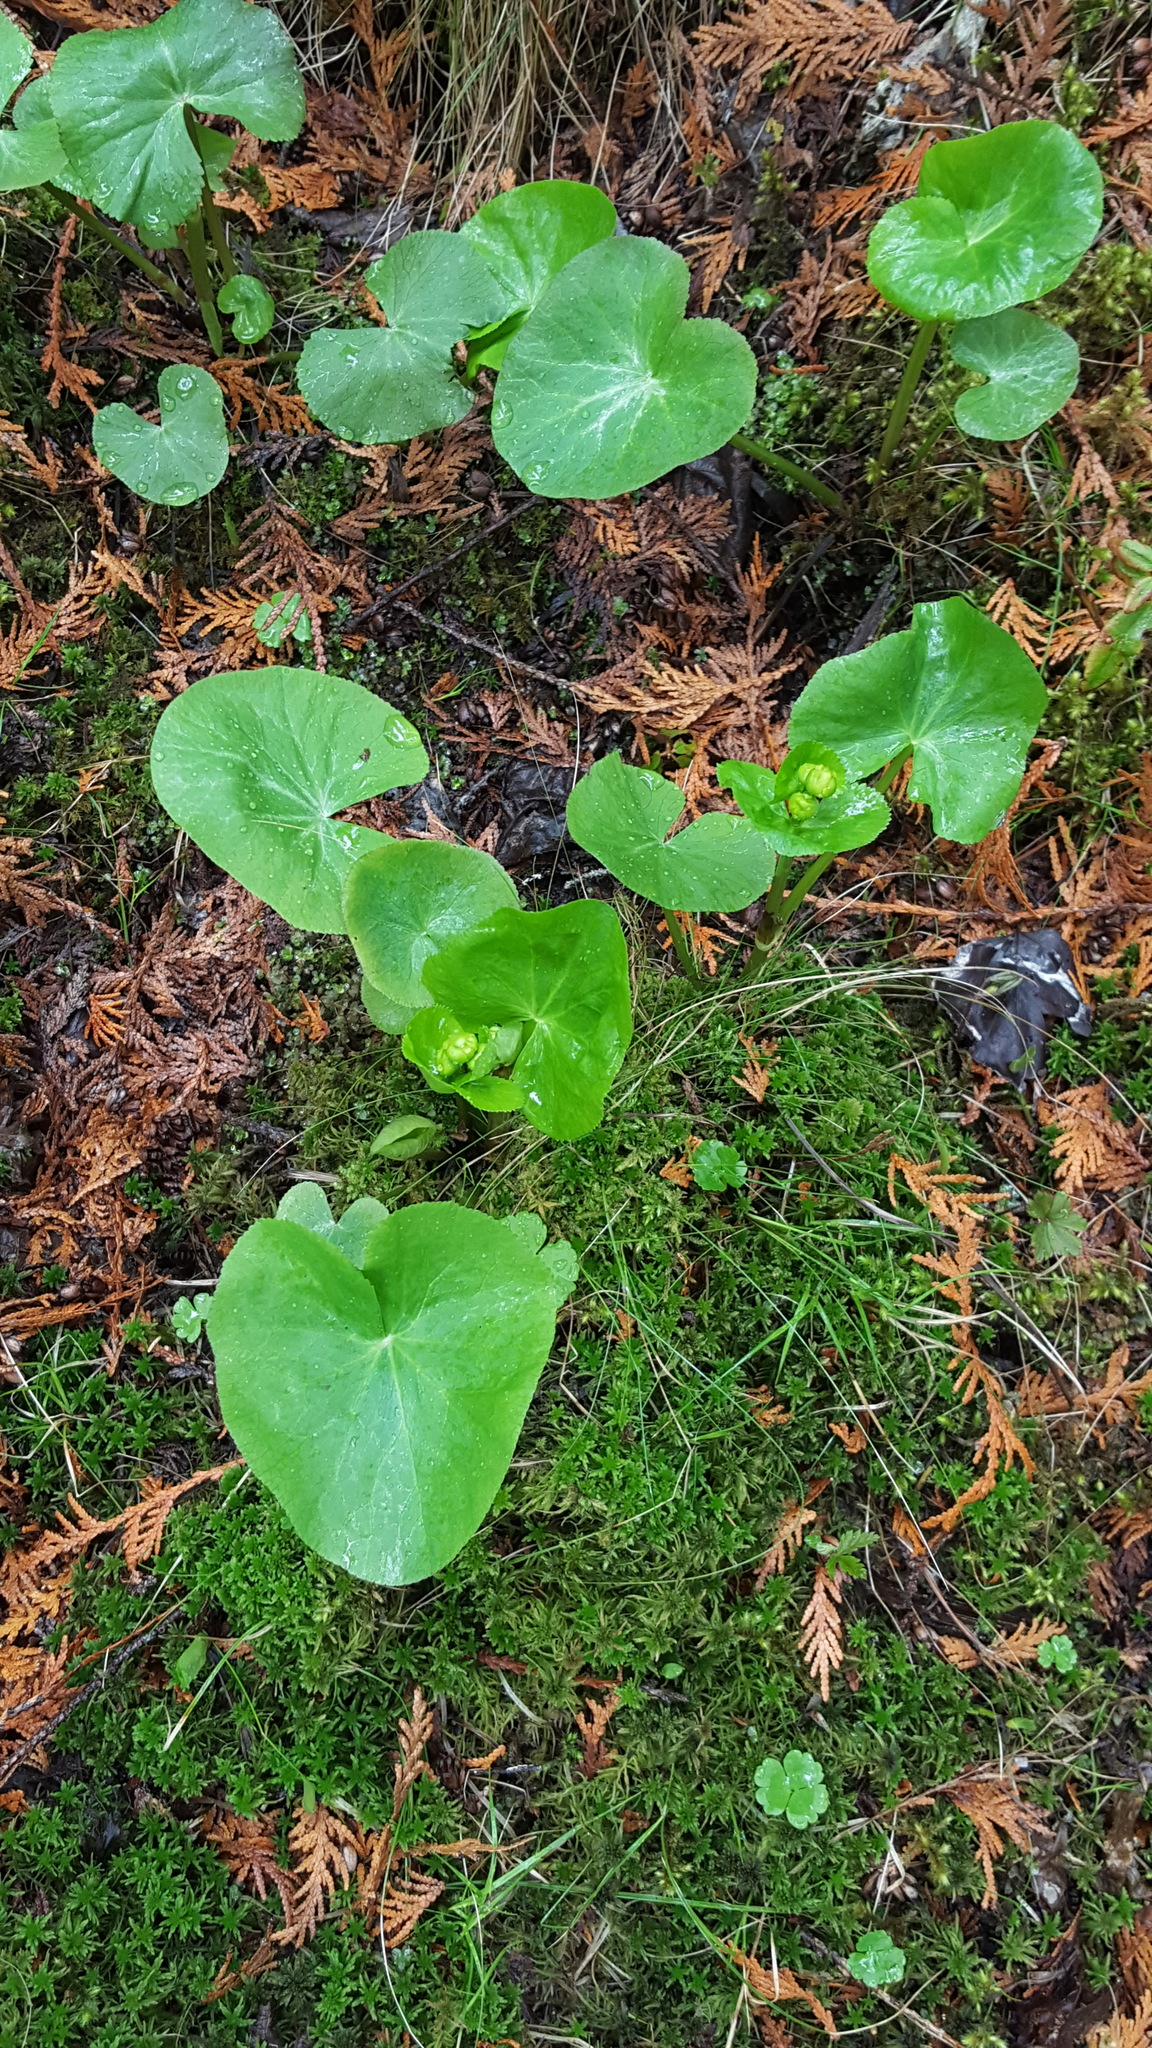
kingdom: Plantae
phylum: Tracheophyta
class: Magnoliopsida
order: Ranunculales
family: Ranunculaceae
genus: Caltha
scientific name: Caltha palustris
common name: Marsh marigold
